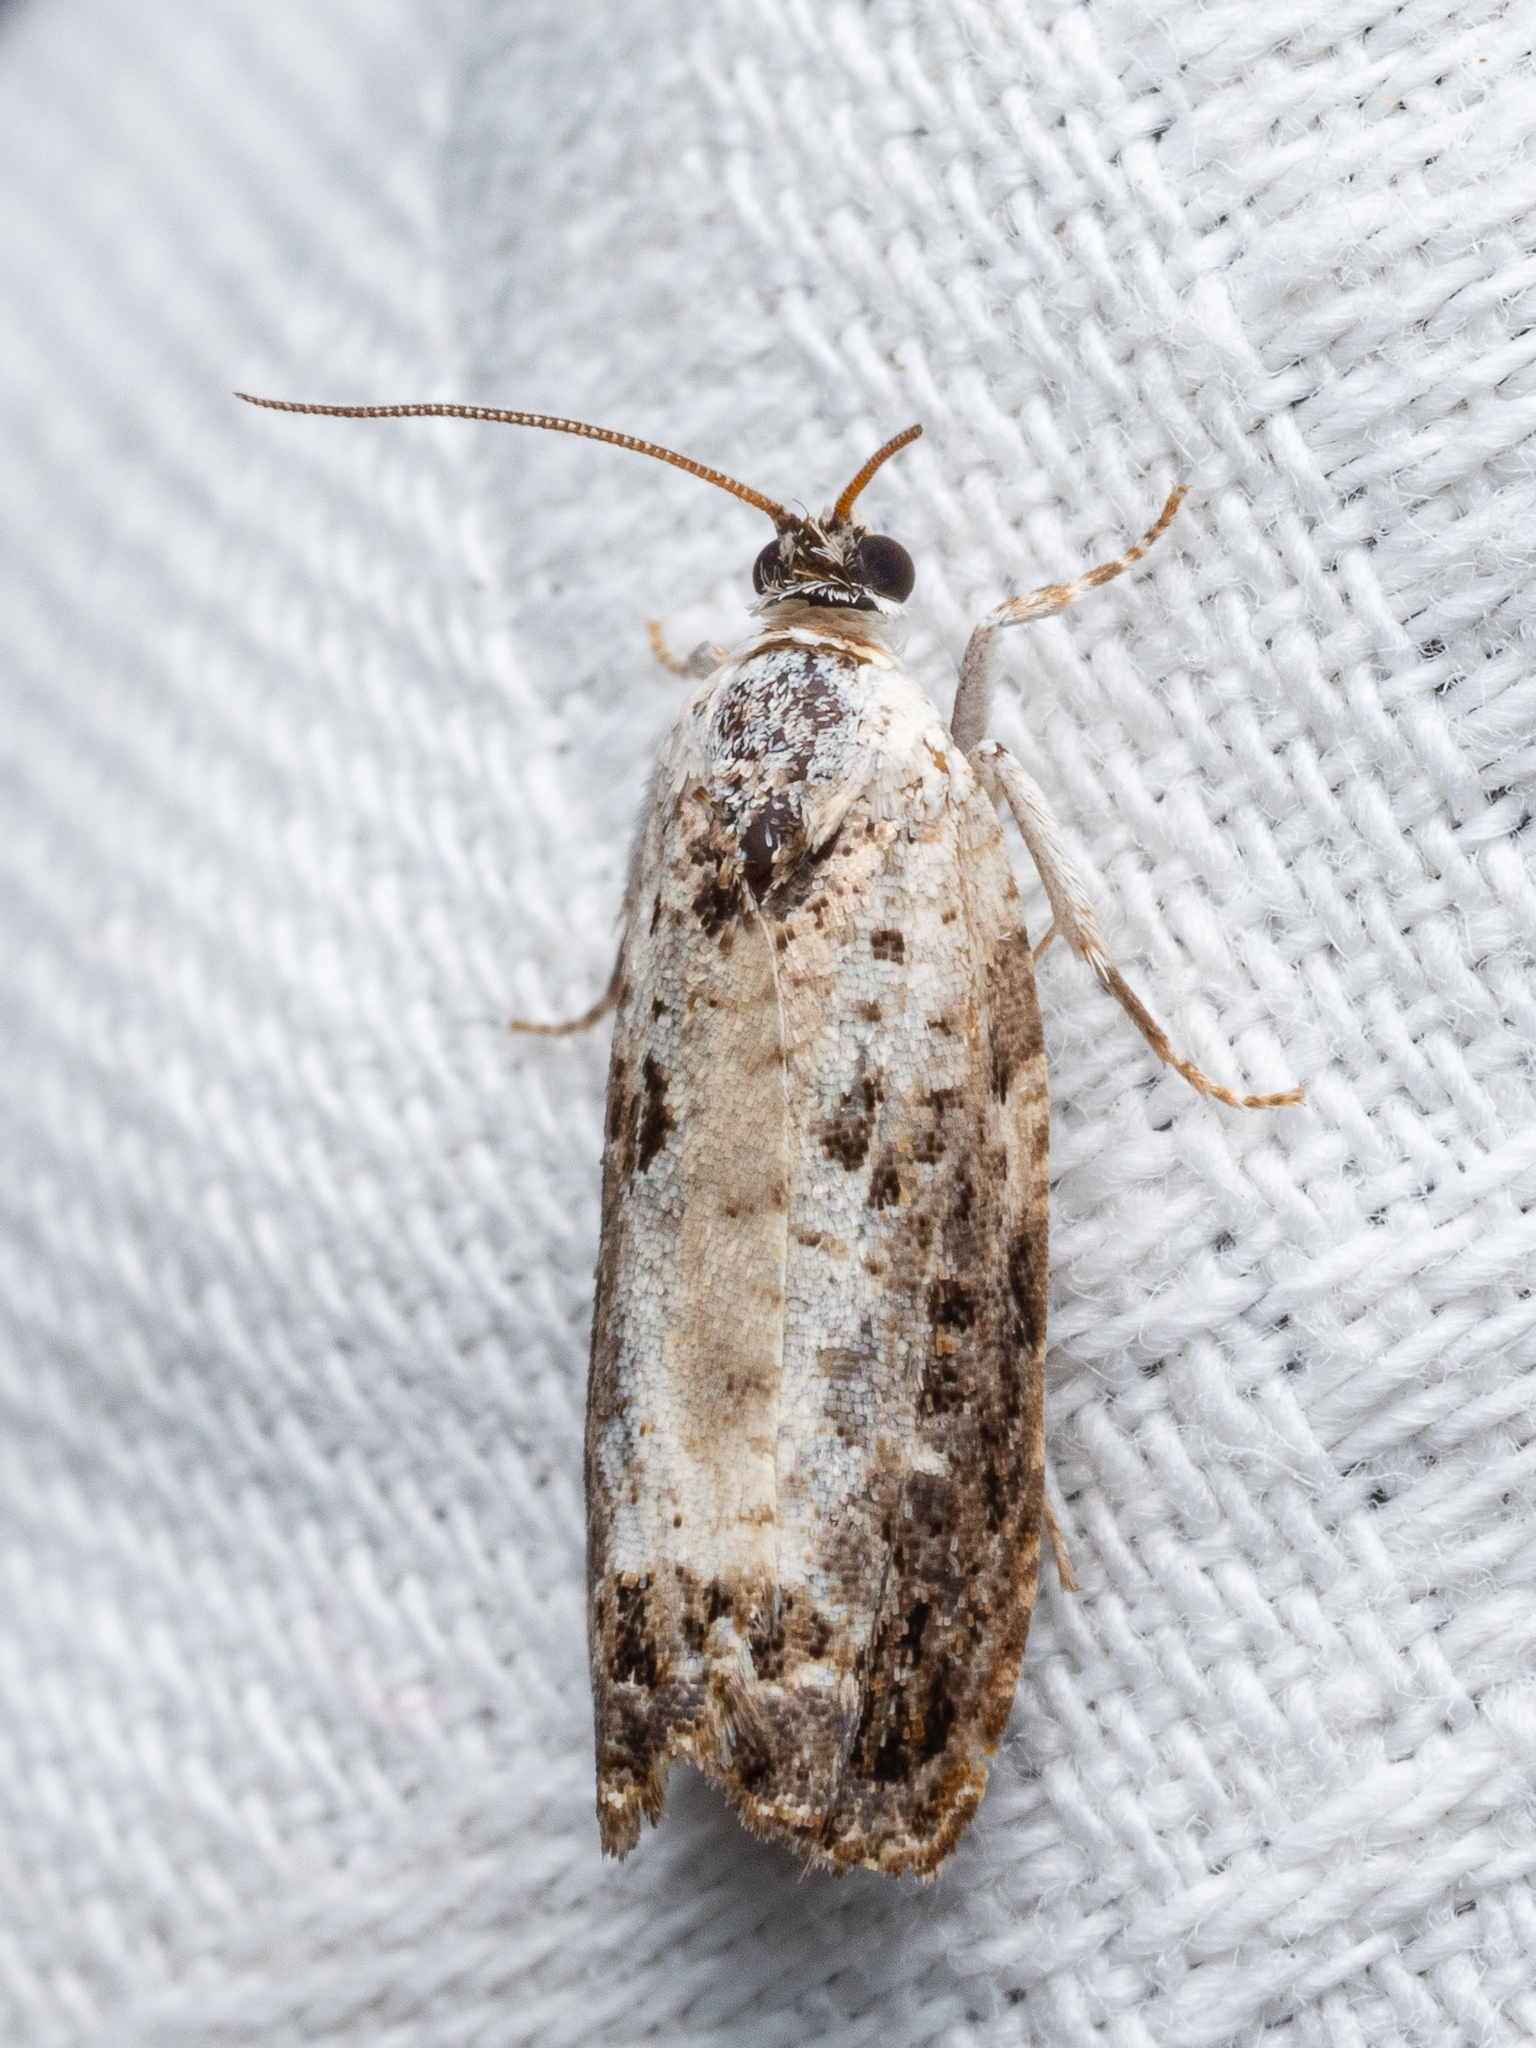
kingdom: Animalia
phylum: Arthropoda
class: Insecta
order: Lepidoptera
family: Tortricidae
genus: Hedya
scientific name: Hedya salicella
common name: Large tortricid moth
